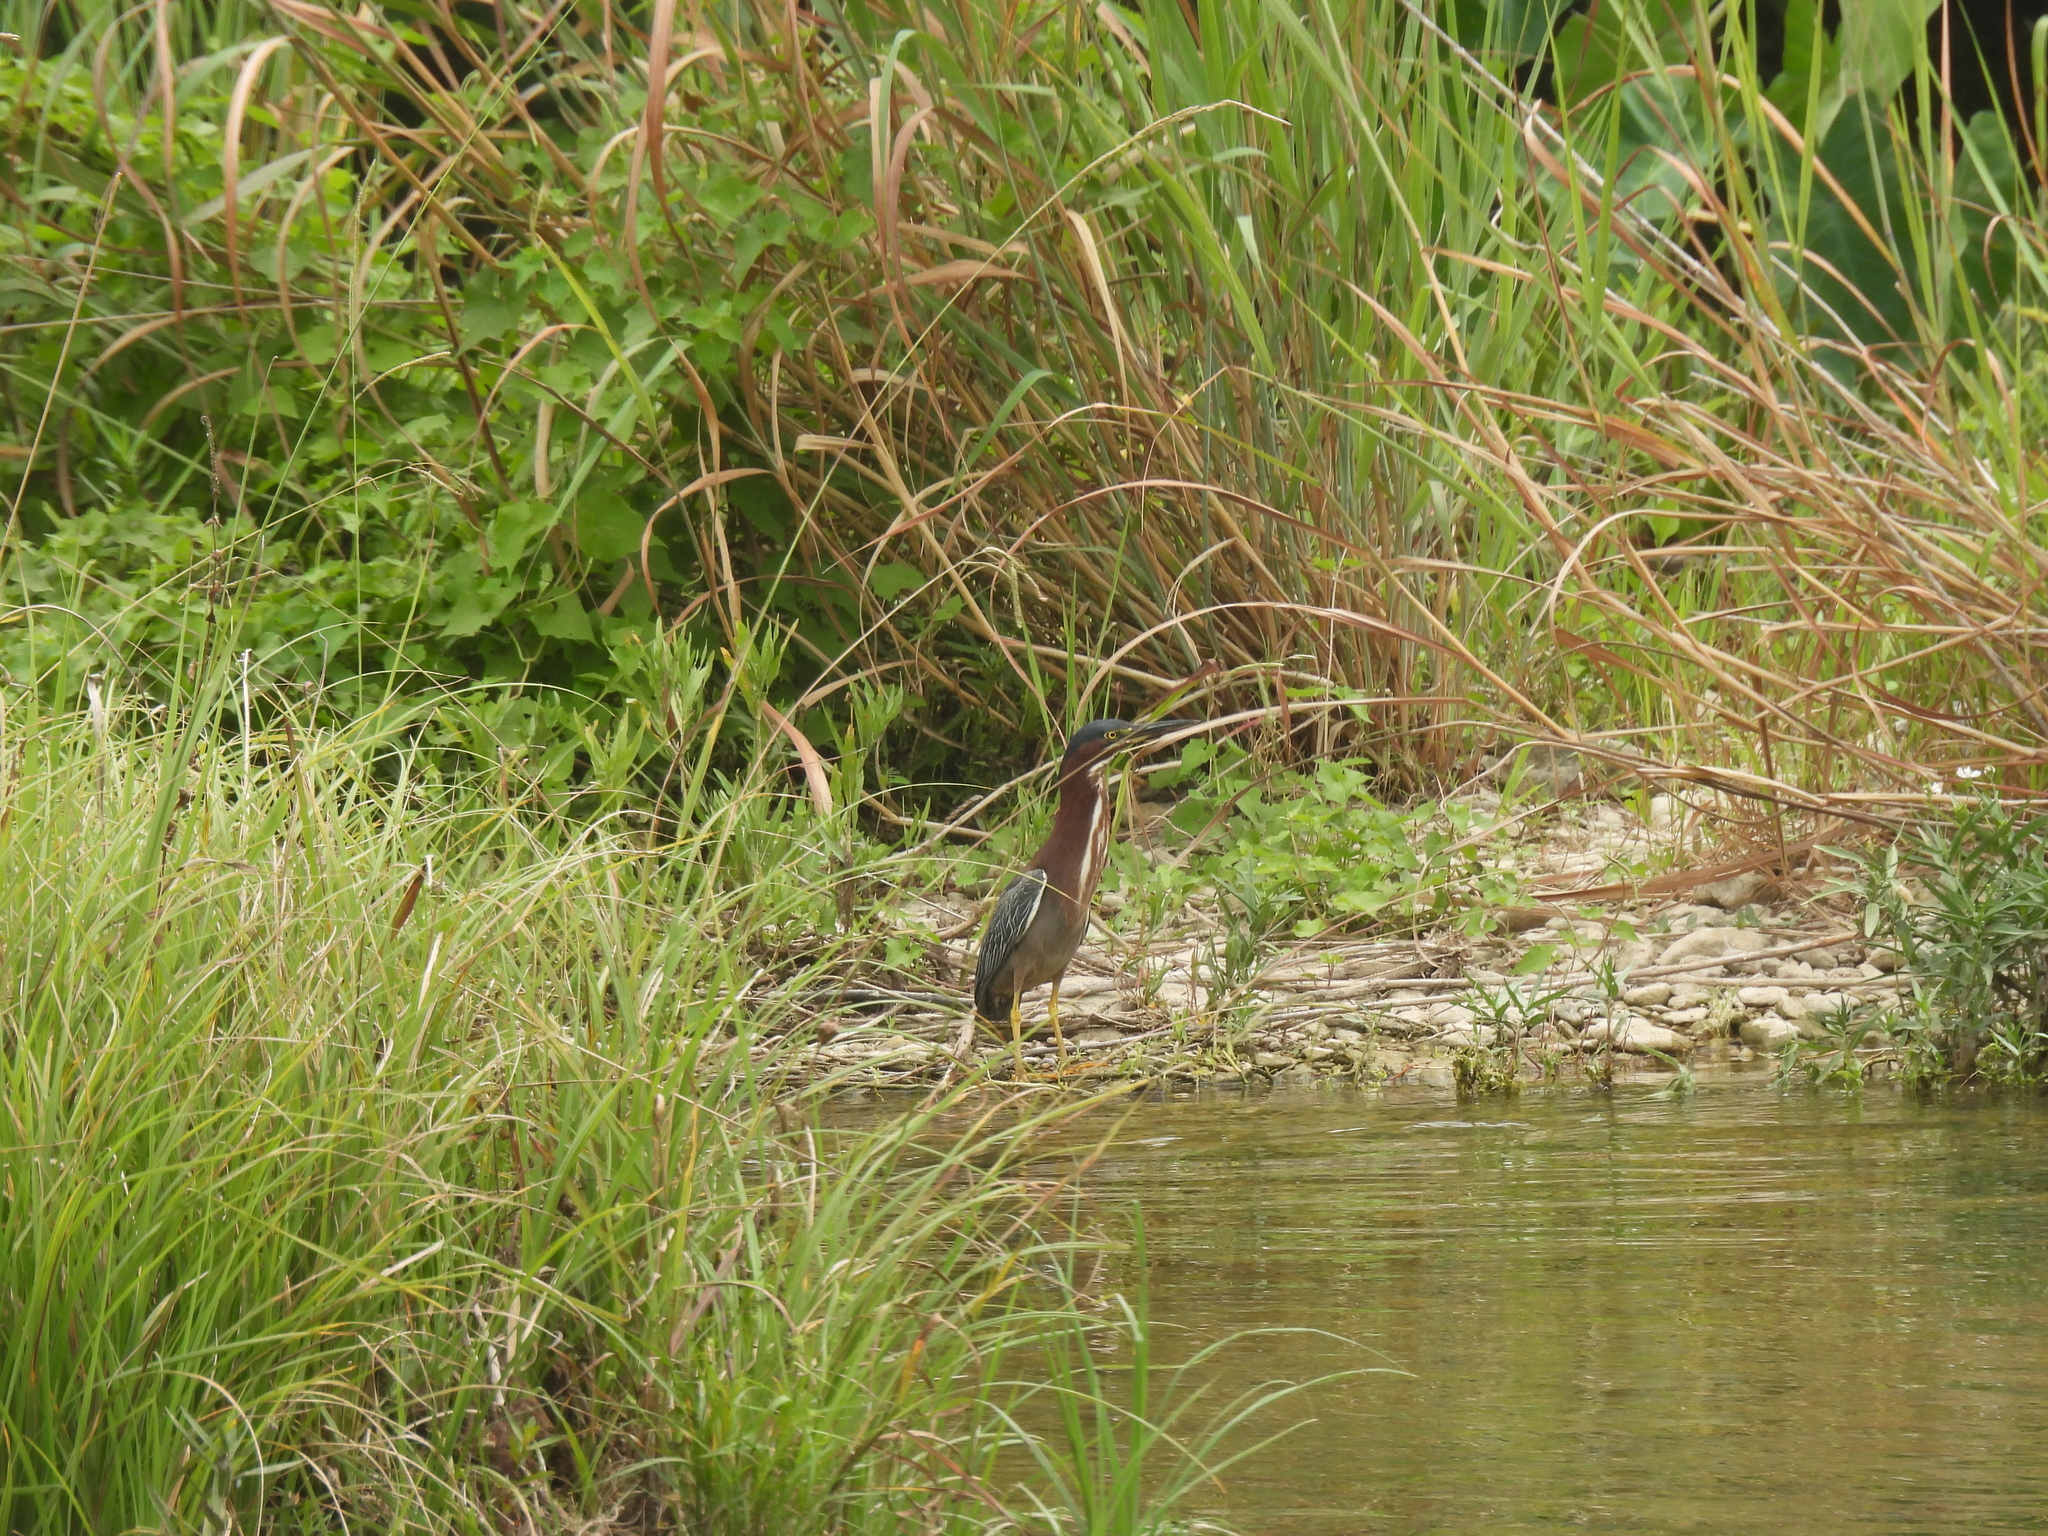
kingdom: Animalia
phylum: Chordata
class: Aves
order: Pelecaniformes
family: Ardeidae
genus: Butorides
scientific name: Butorides virescens
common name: Green heron
